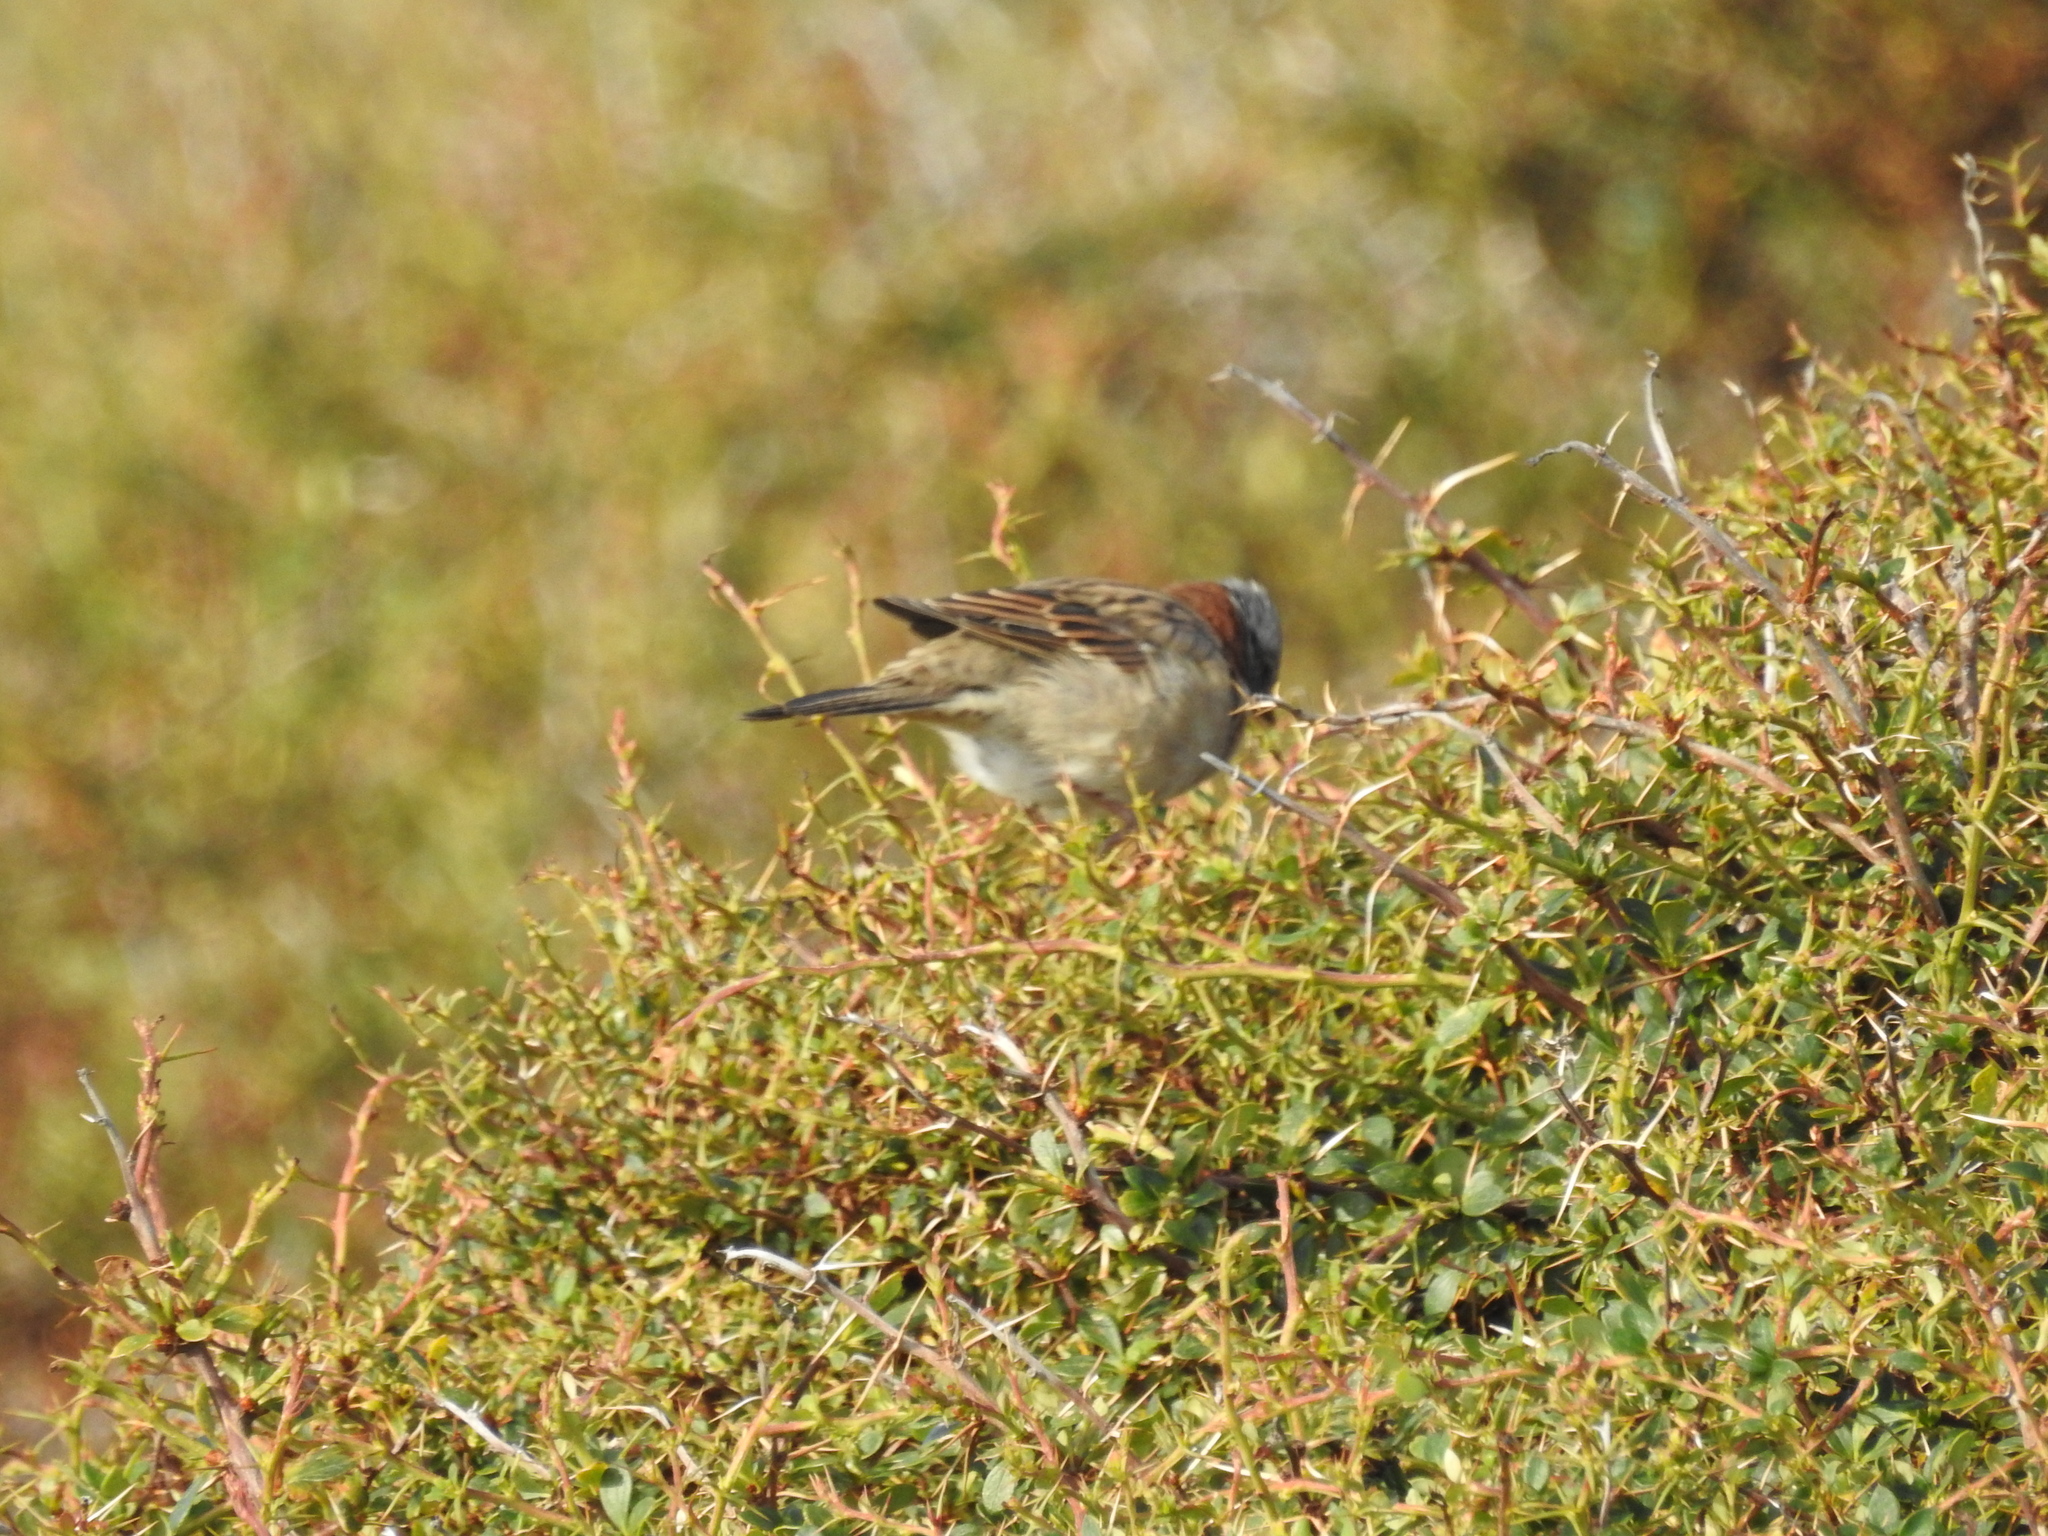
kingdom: Animalia
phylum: Chordata
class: Aves
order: Passeriformes
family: Passerellidae
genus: Zonotrichia
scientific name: Zonotrichia capensis
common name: Rufous-collared sparrow
